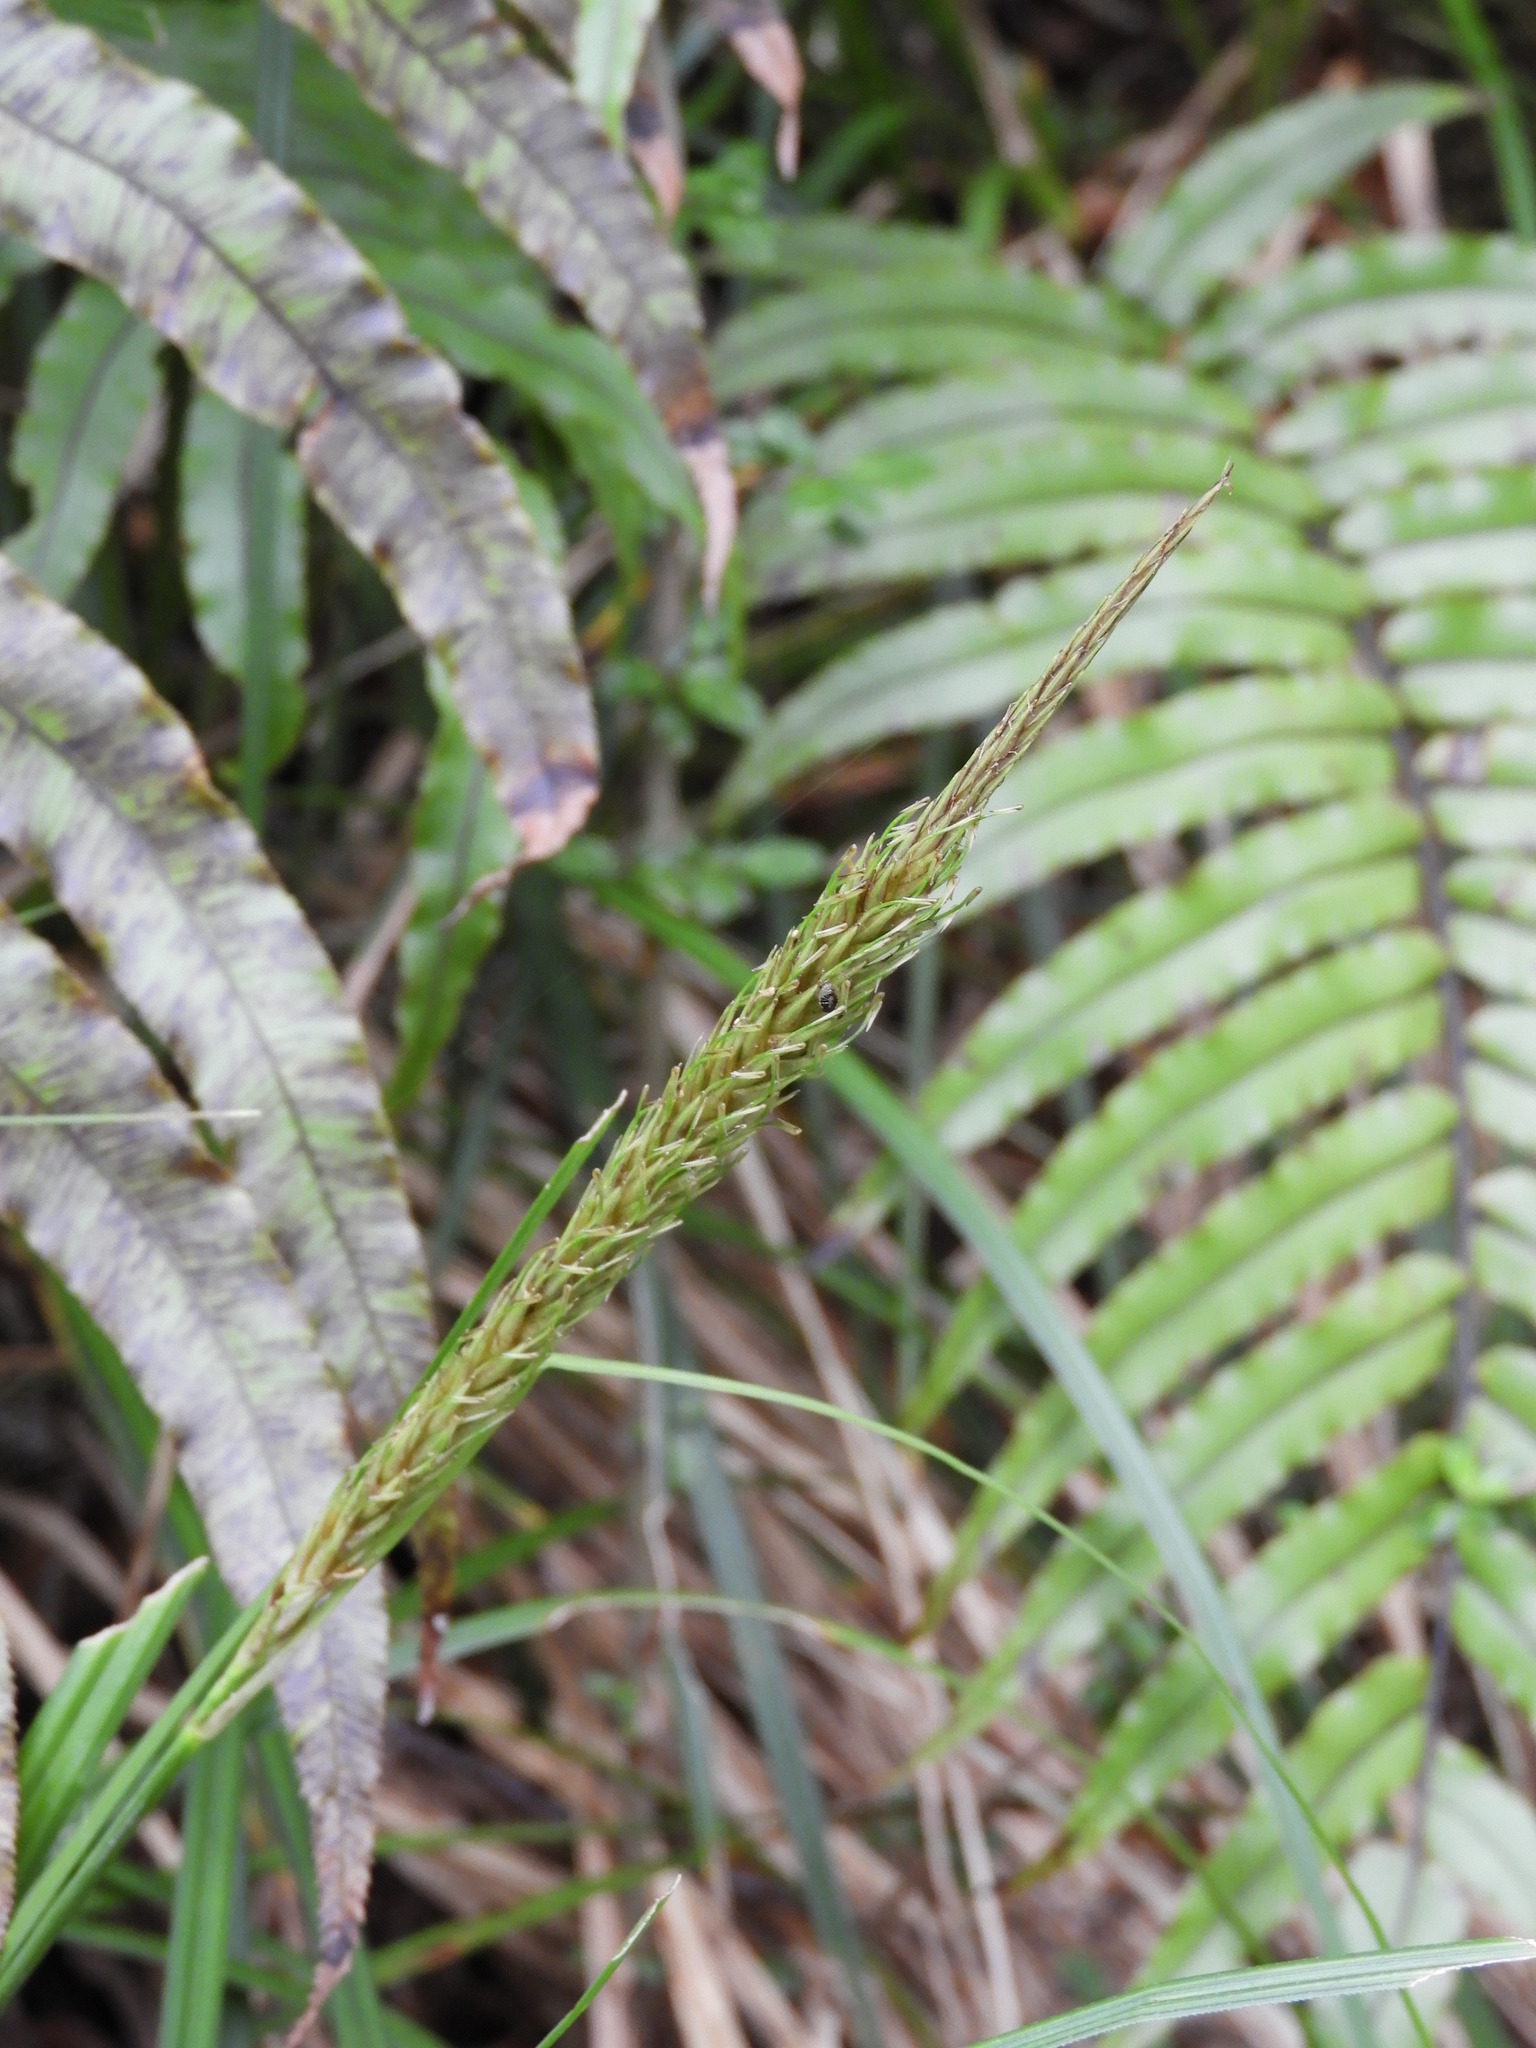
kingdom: Plantae
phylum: Tracheophyta
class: Liliopsida
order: Poales
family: Cyperaceae
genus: Carex
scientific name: Carex corynoidea
